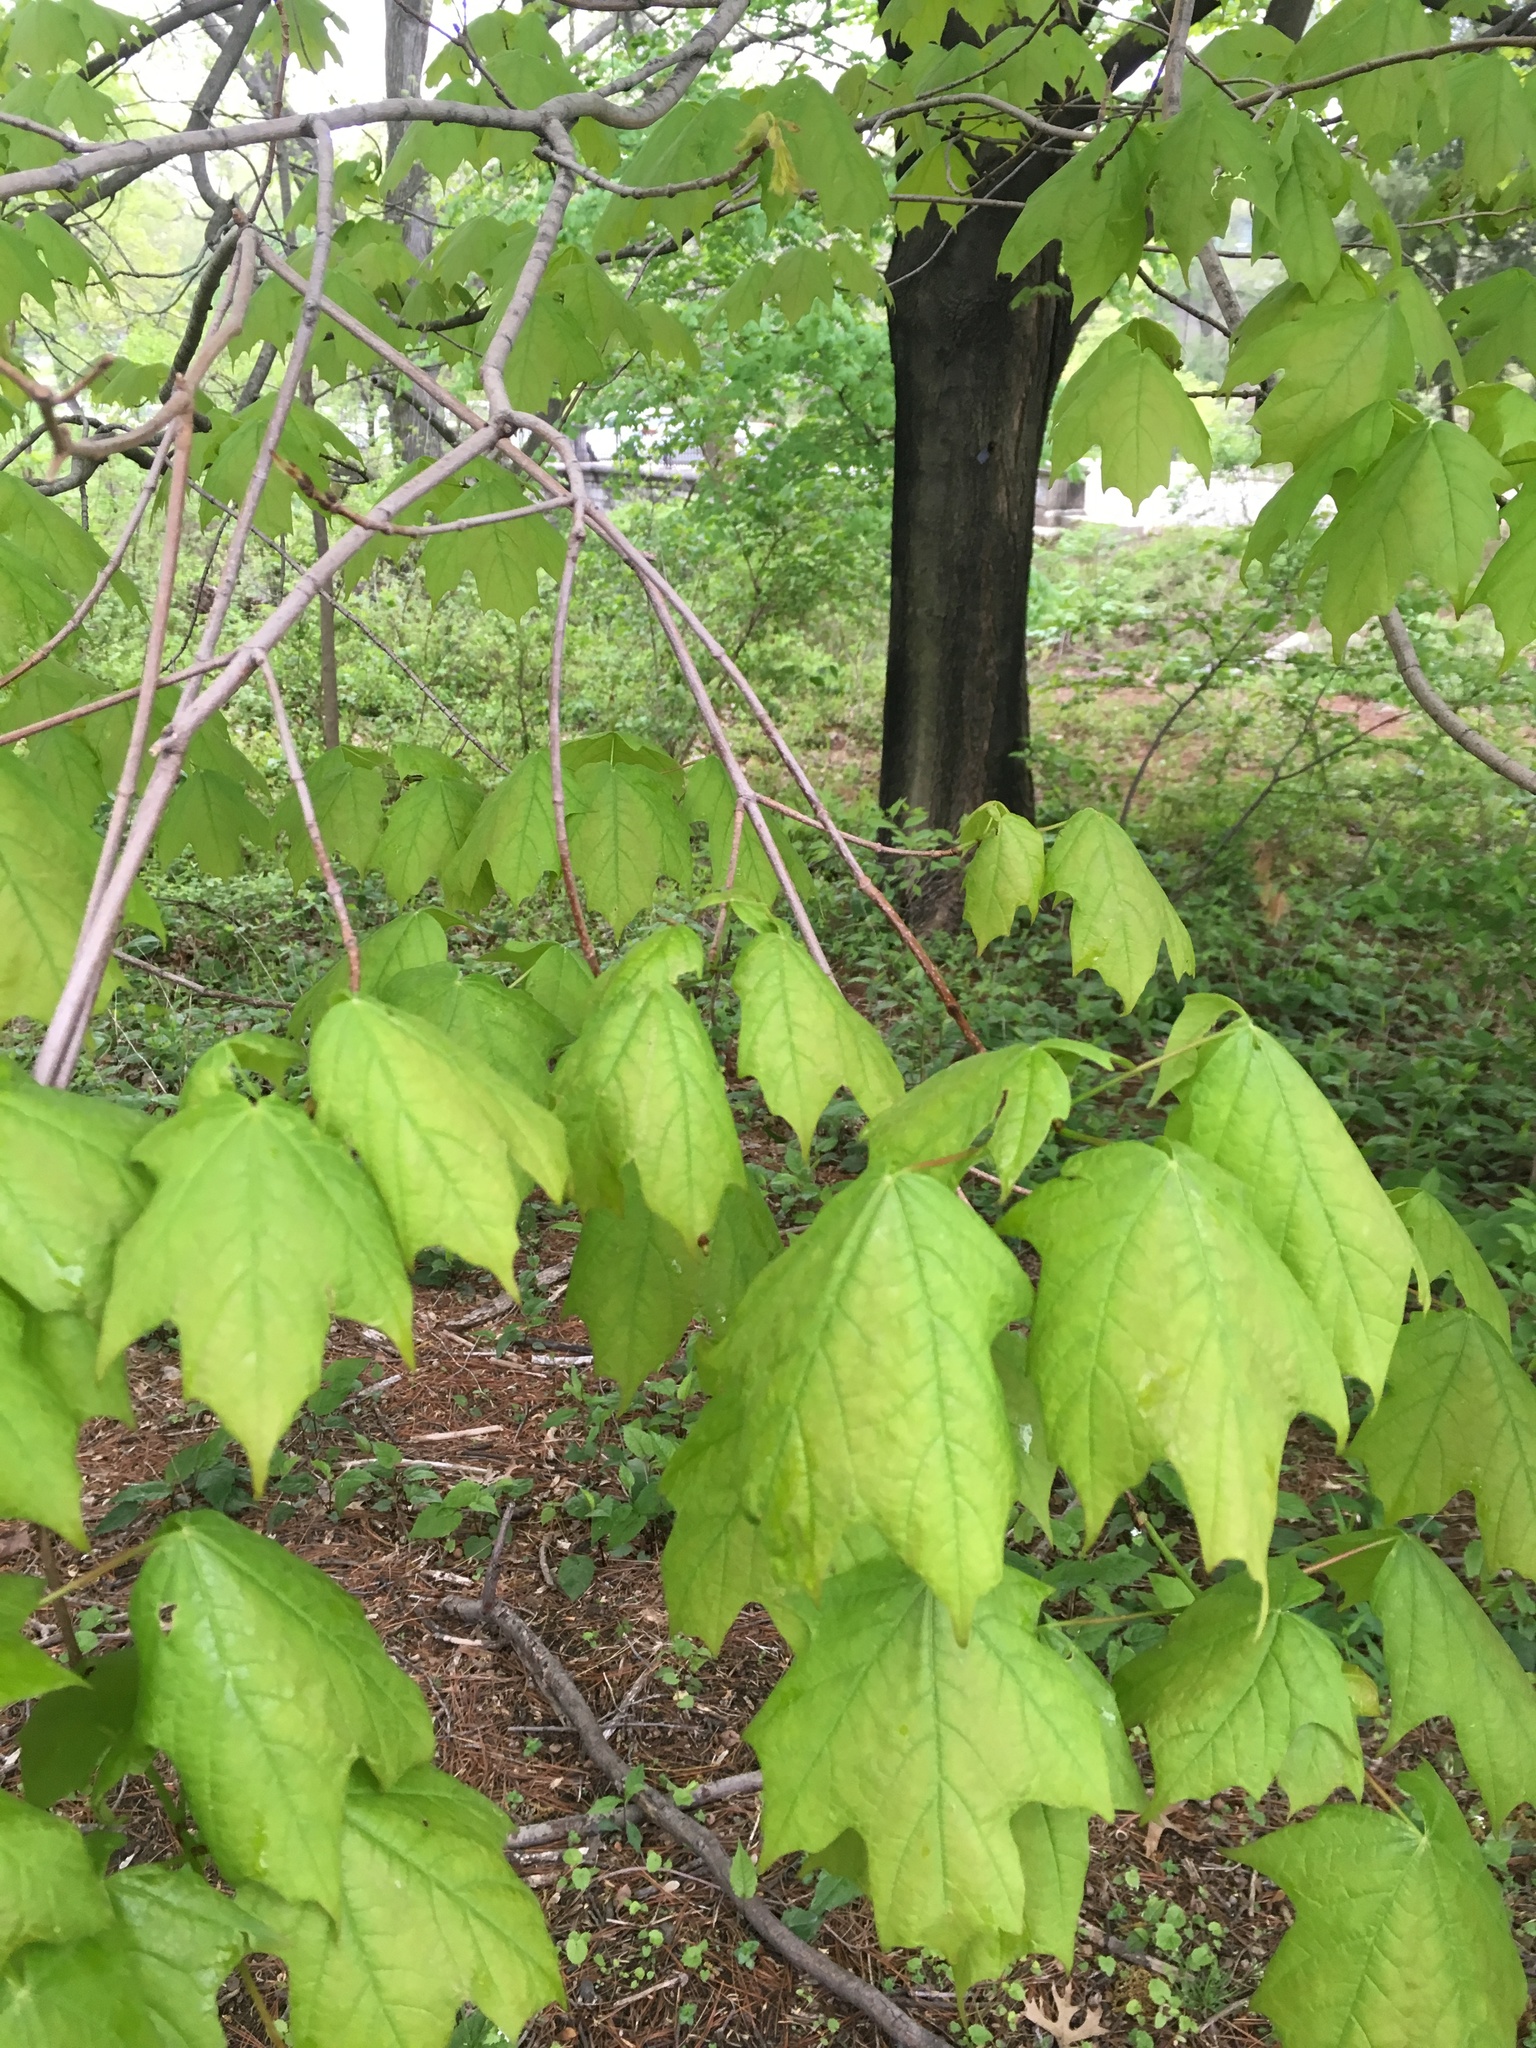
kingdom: Plantae
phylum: Tracheophyta
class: Magnoliopsida
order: Sapindales
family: Sapindaceae
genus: Acer
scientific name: Acer saccharum
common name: Sugar maple
